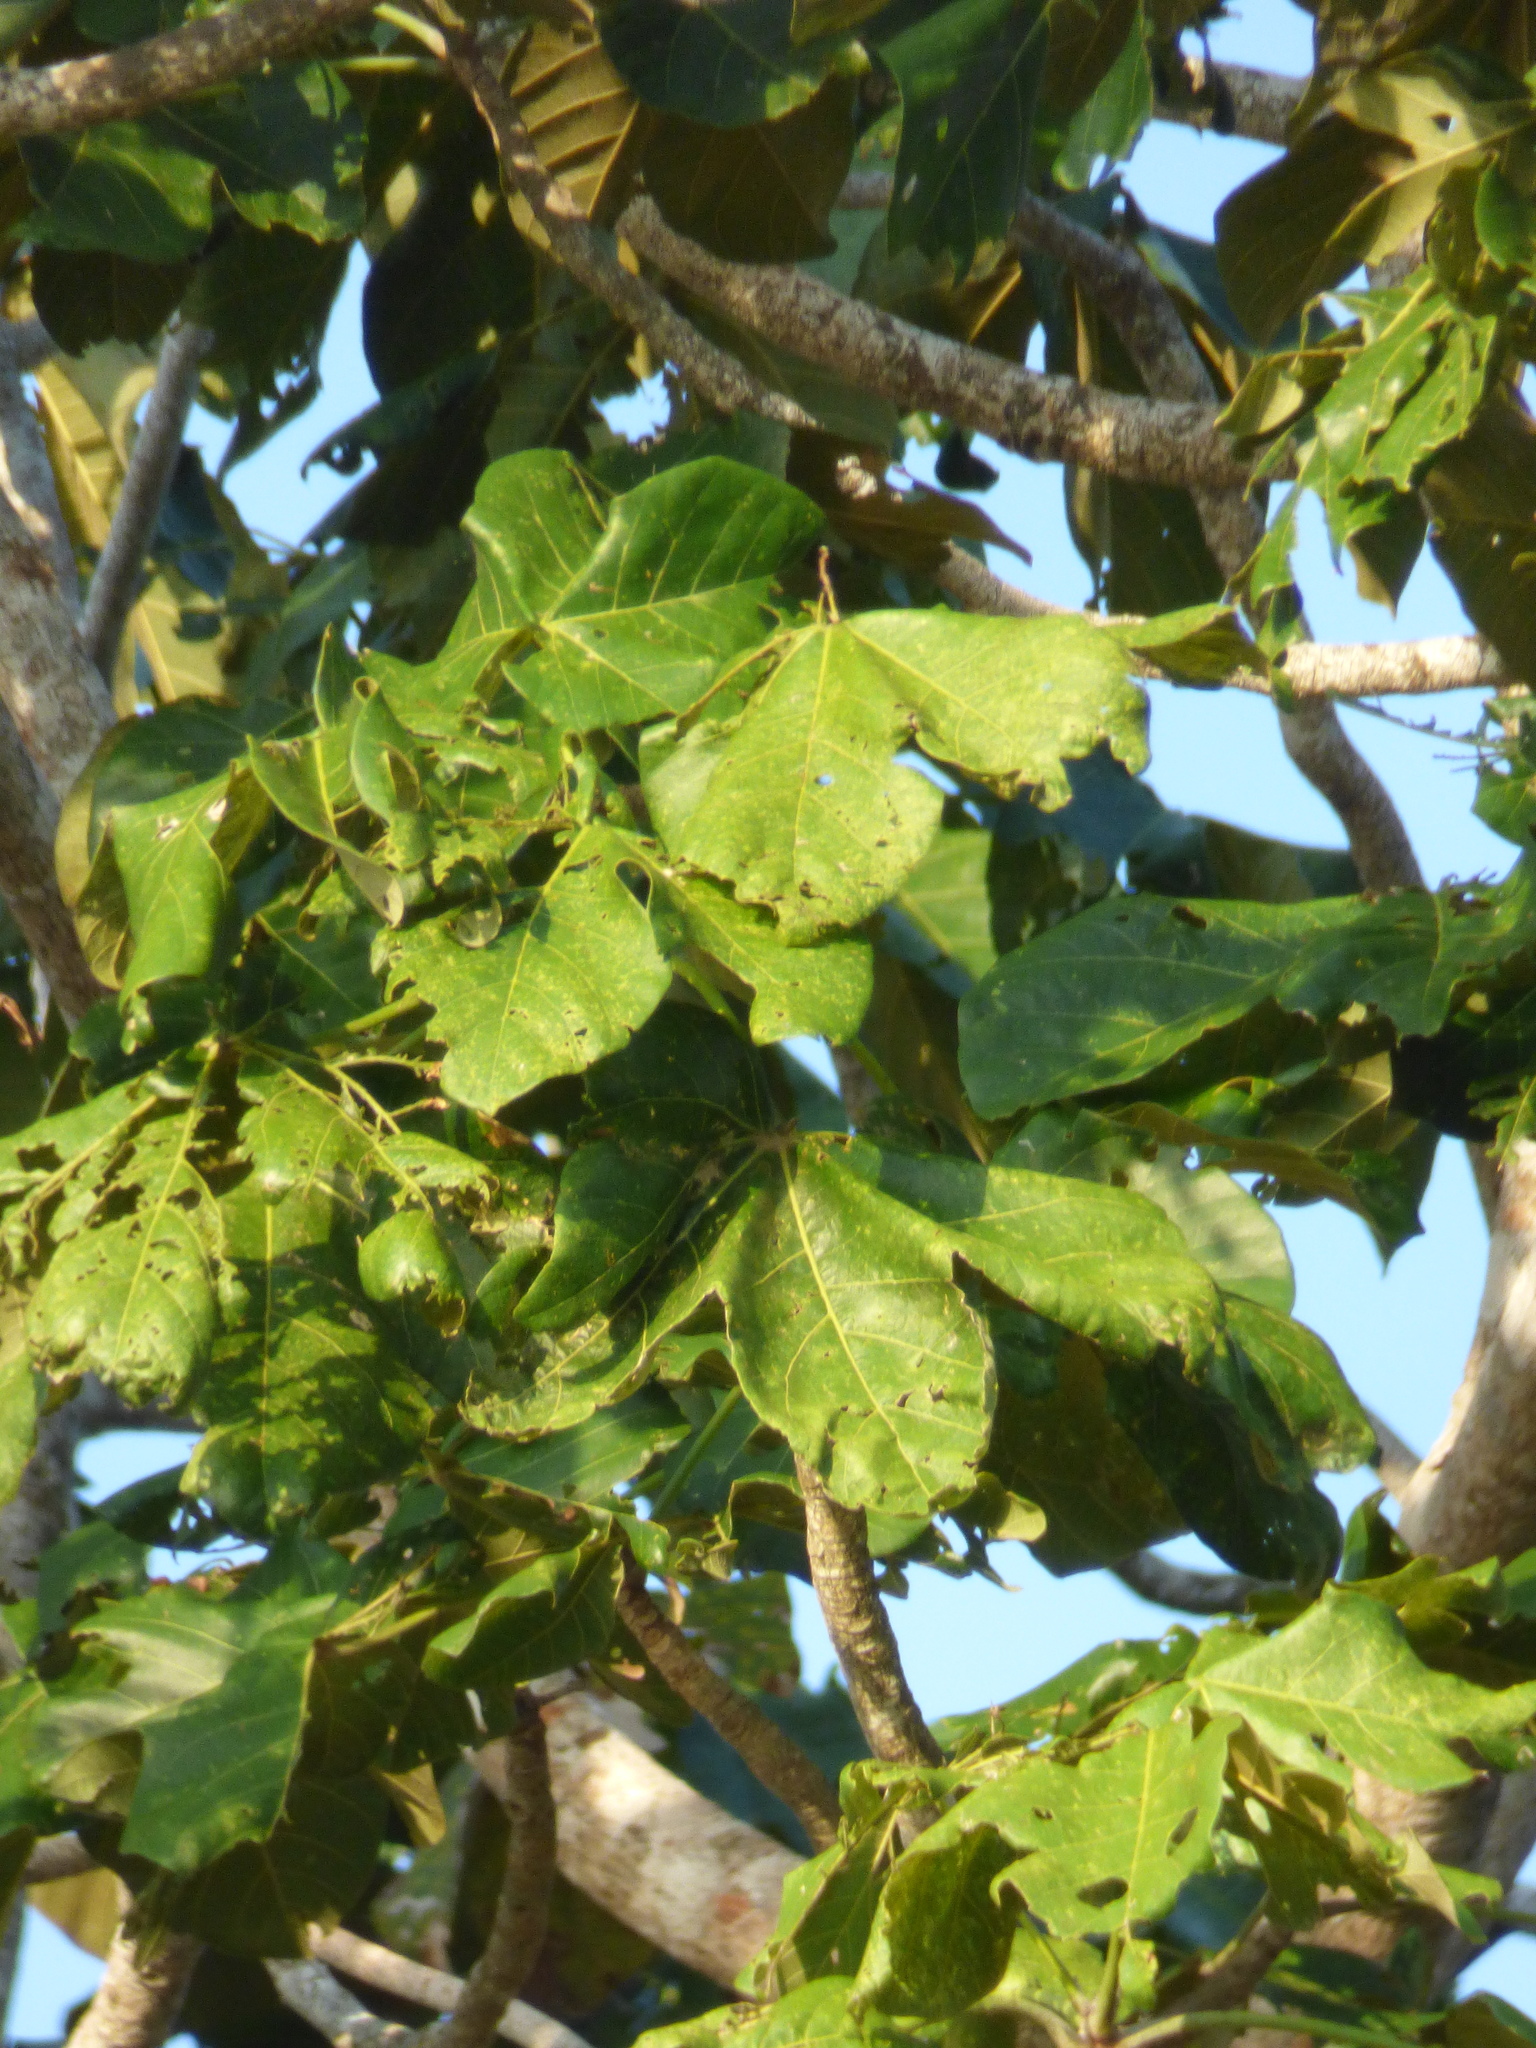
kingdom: Plantae
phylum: Tracheophyta
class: Magnoliopsida
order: Malvales
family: Malvaceae
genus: Sterculia
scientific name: Sterculia apetala
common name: Panama tree
